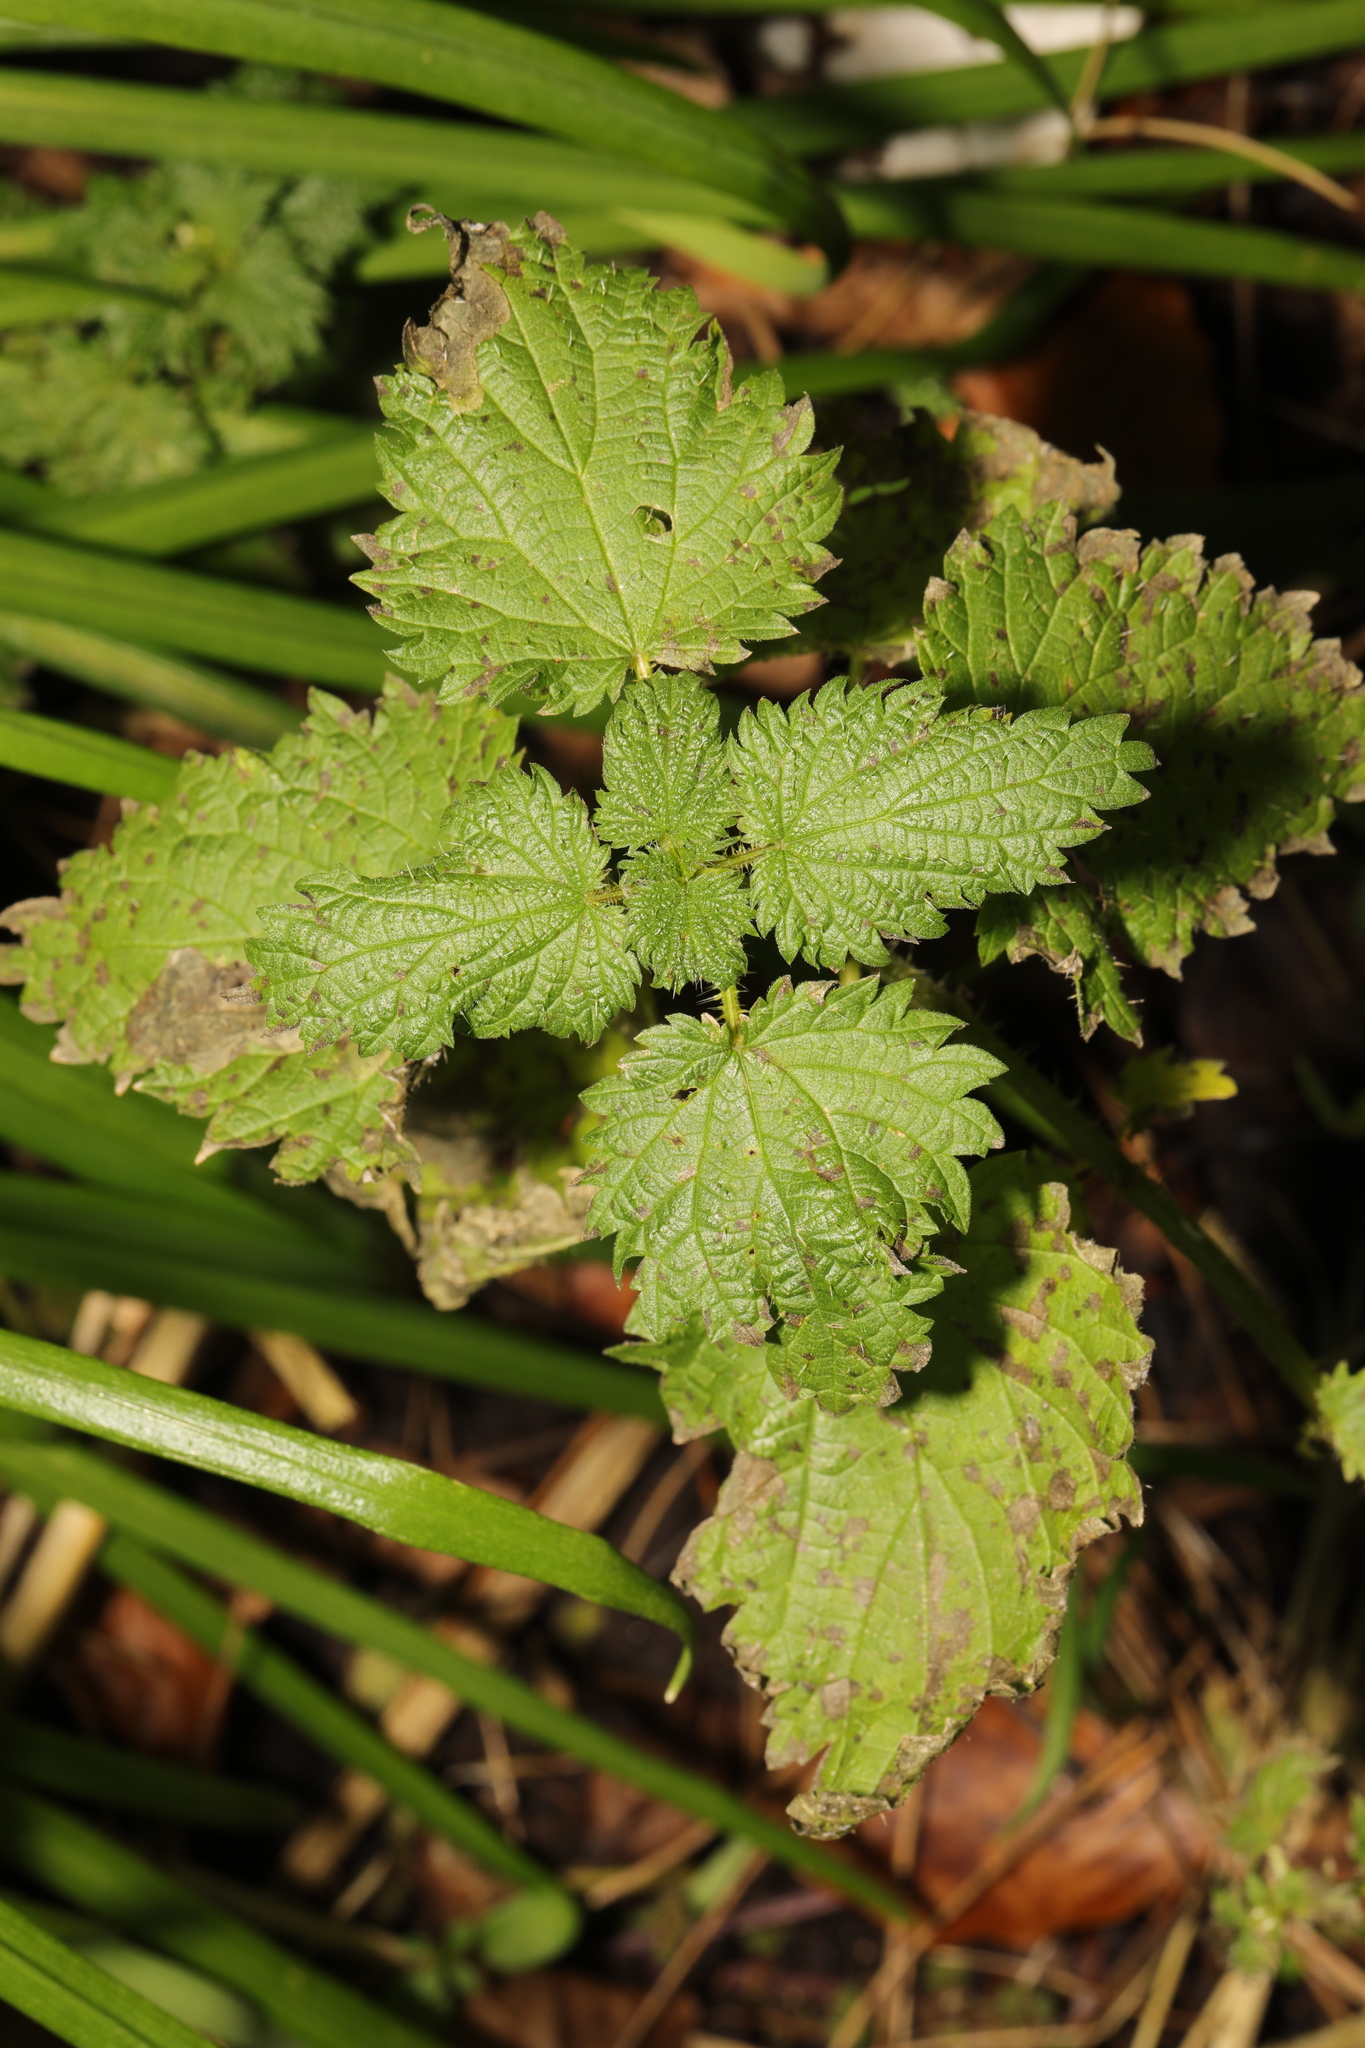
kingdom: Plantae
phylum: Tracheophyta
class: Magnoliopsida
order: Rosales
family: Urticaceae
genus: Urtica
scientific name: Urtica dioica
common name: Common nettle
